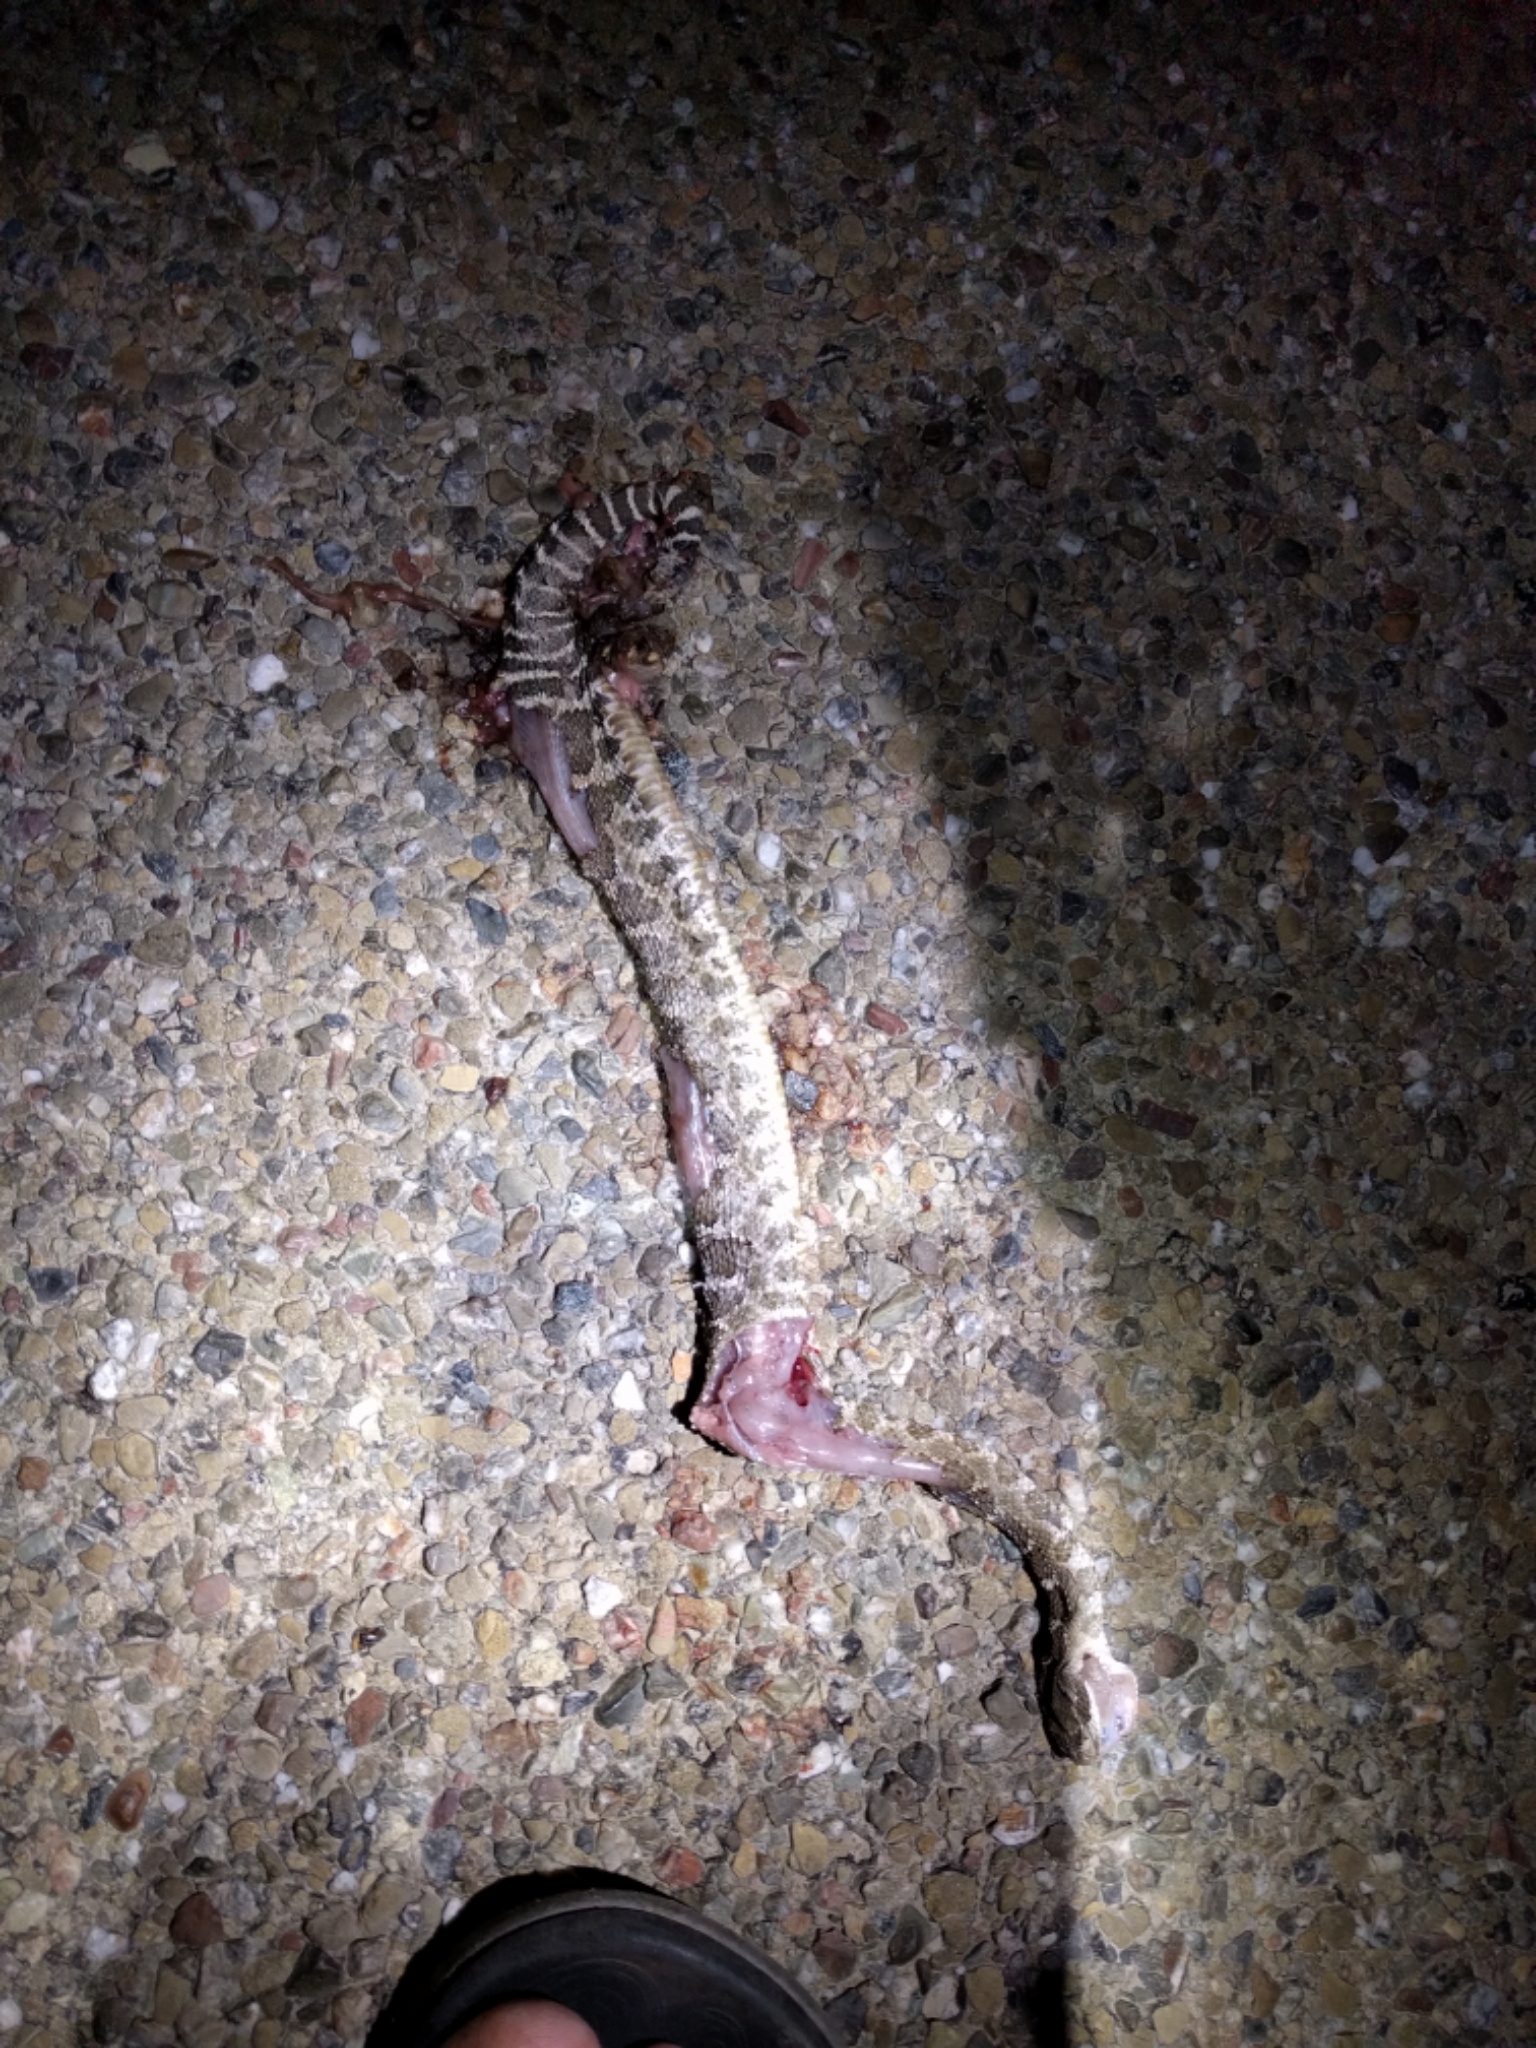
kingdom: Animalia
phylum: Chordata
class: Squamata
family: Viperidae
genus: Crotalus
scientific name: Crotalus oreganus
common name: Abyssus
